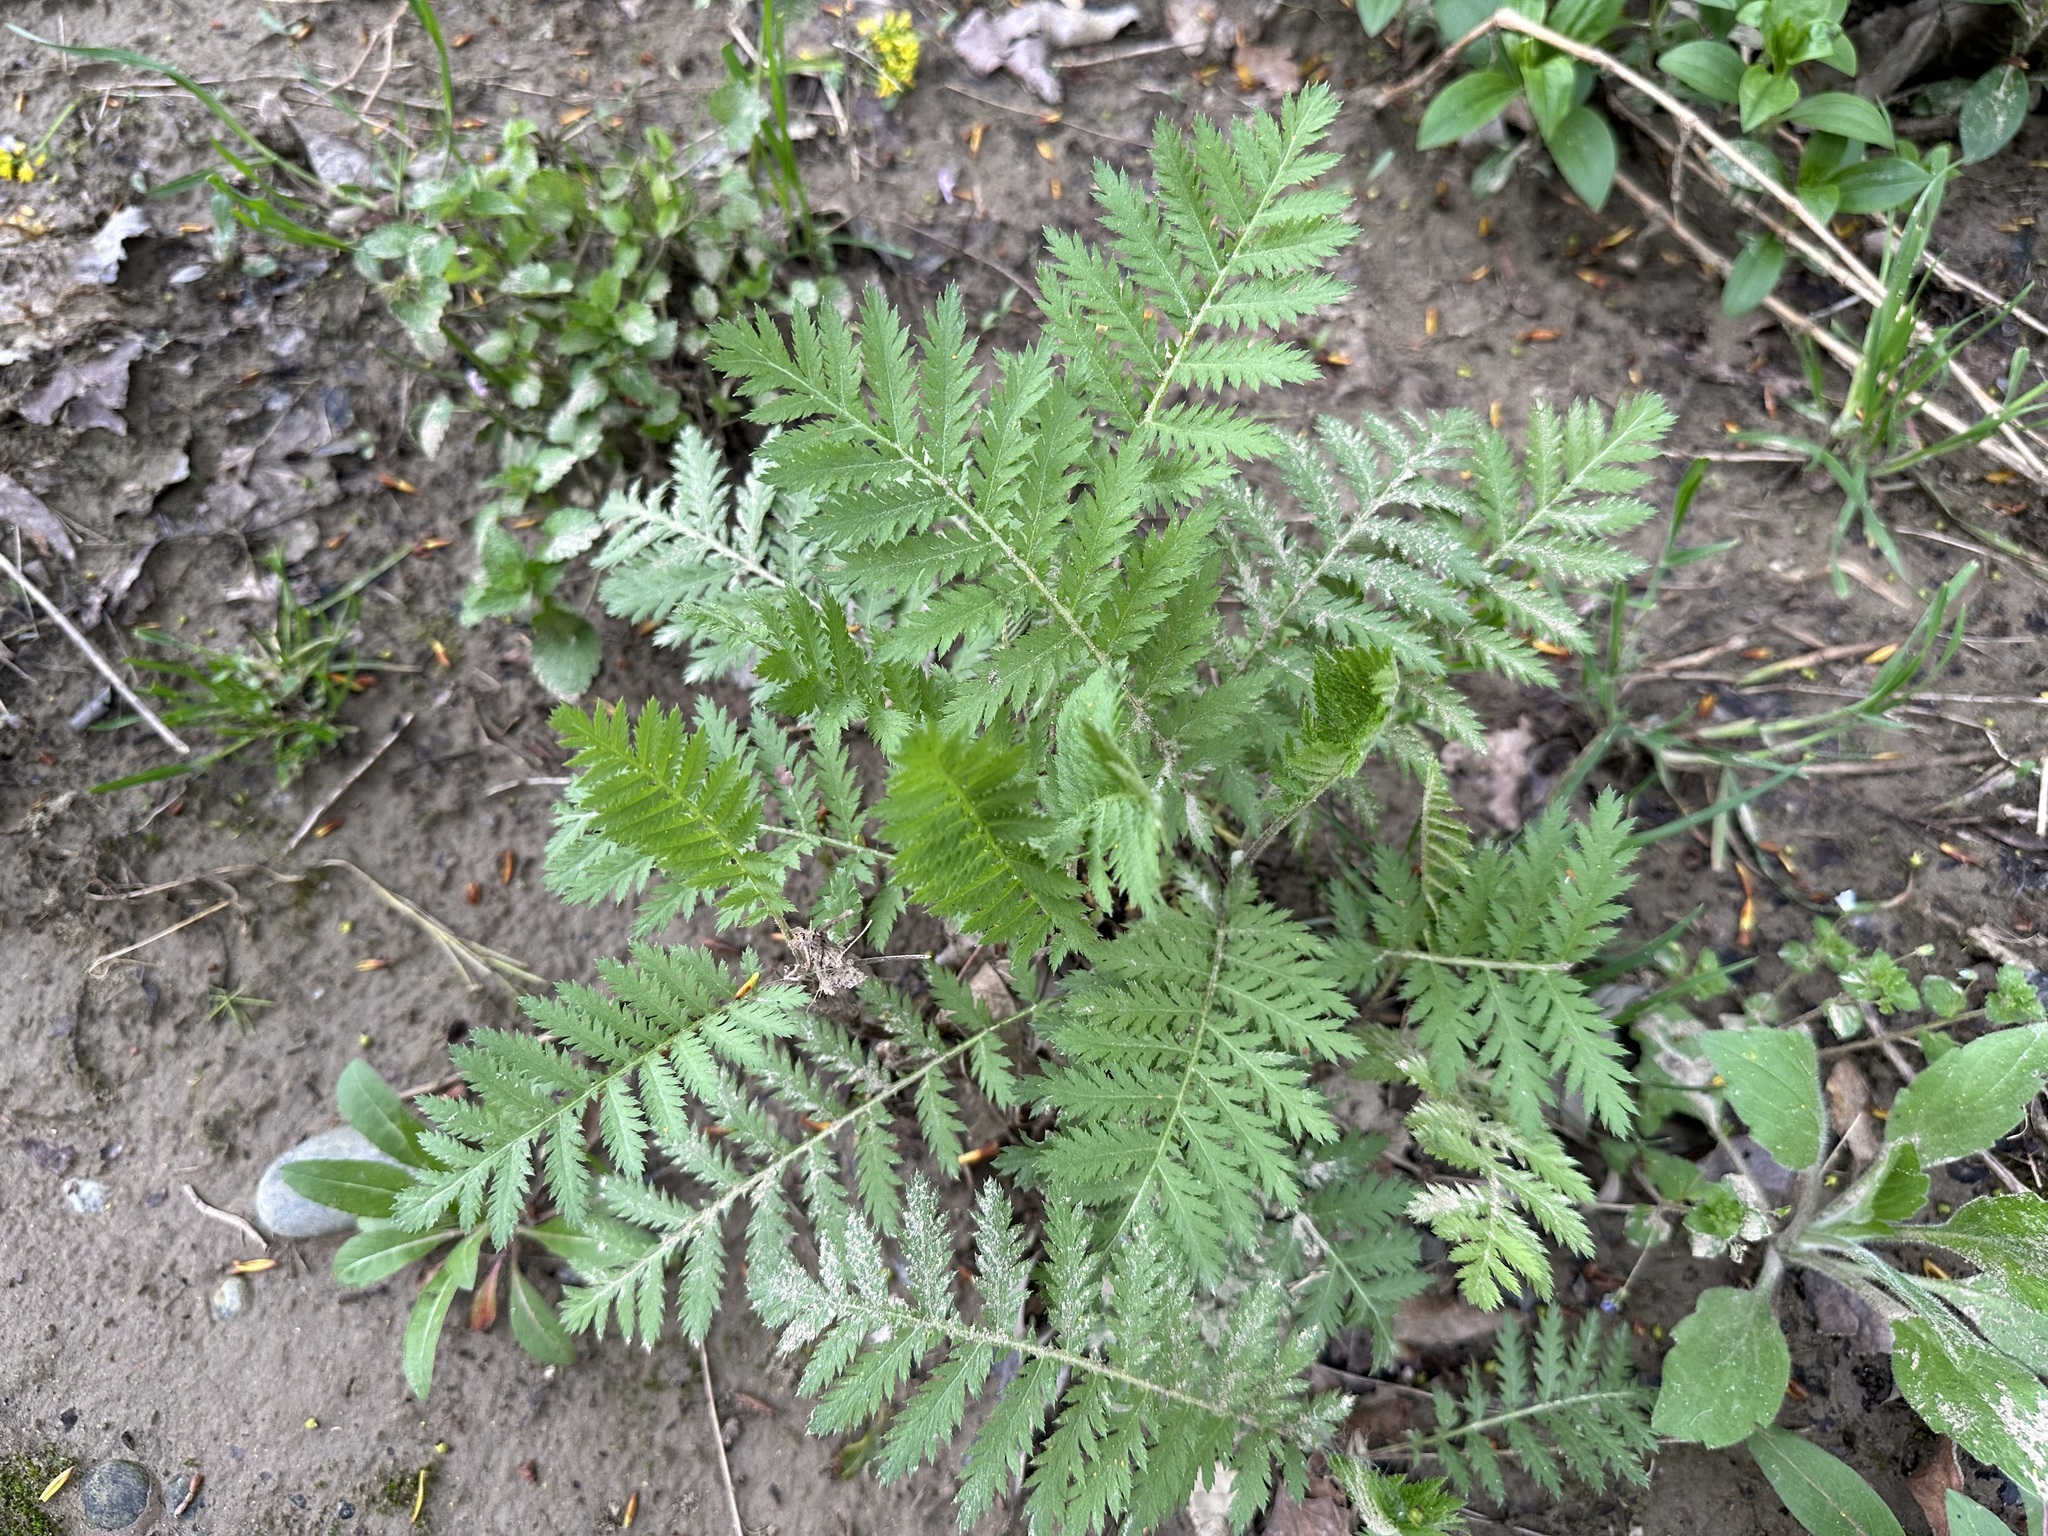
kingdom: Plantae
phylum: Tracheophyta
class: Magnoliopsida
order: Asterales
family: Asteraceae
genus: Tanacetum
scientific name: Tanacetum vulgare
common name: Common tansy
